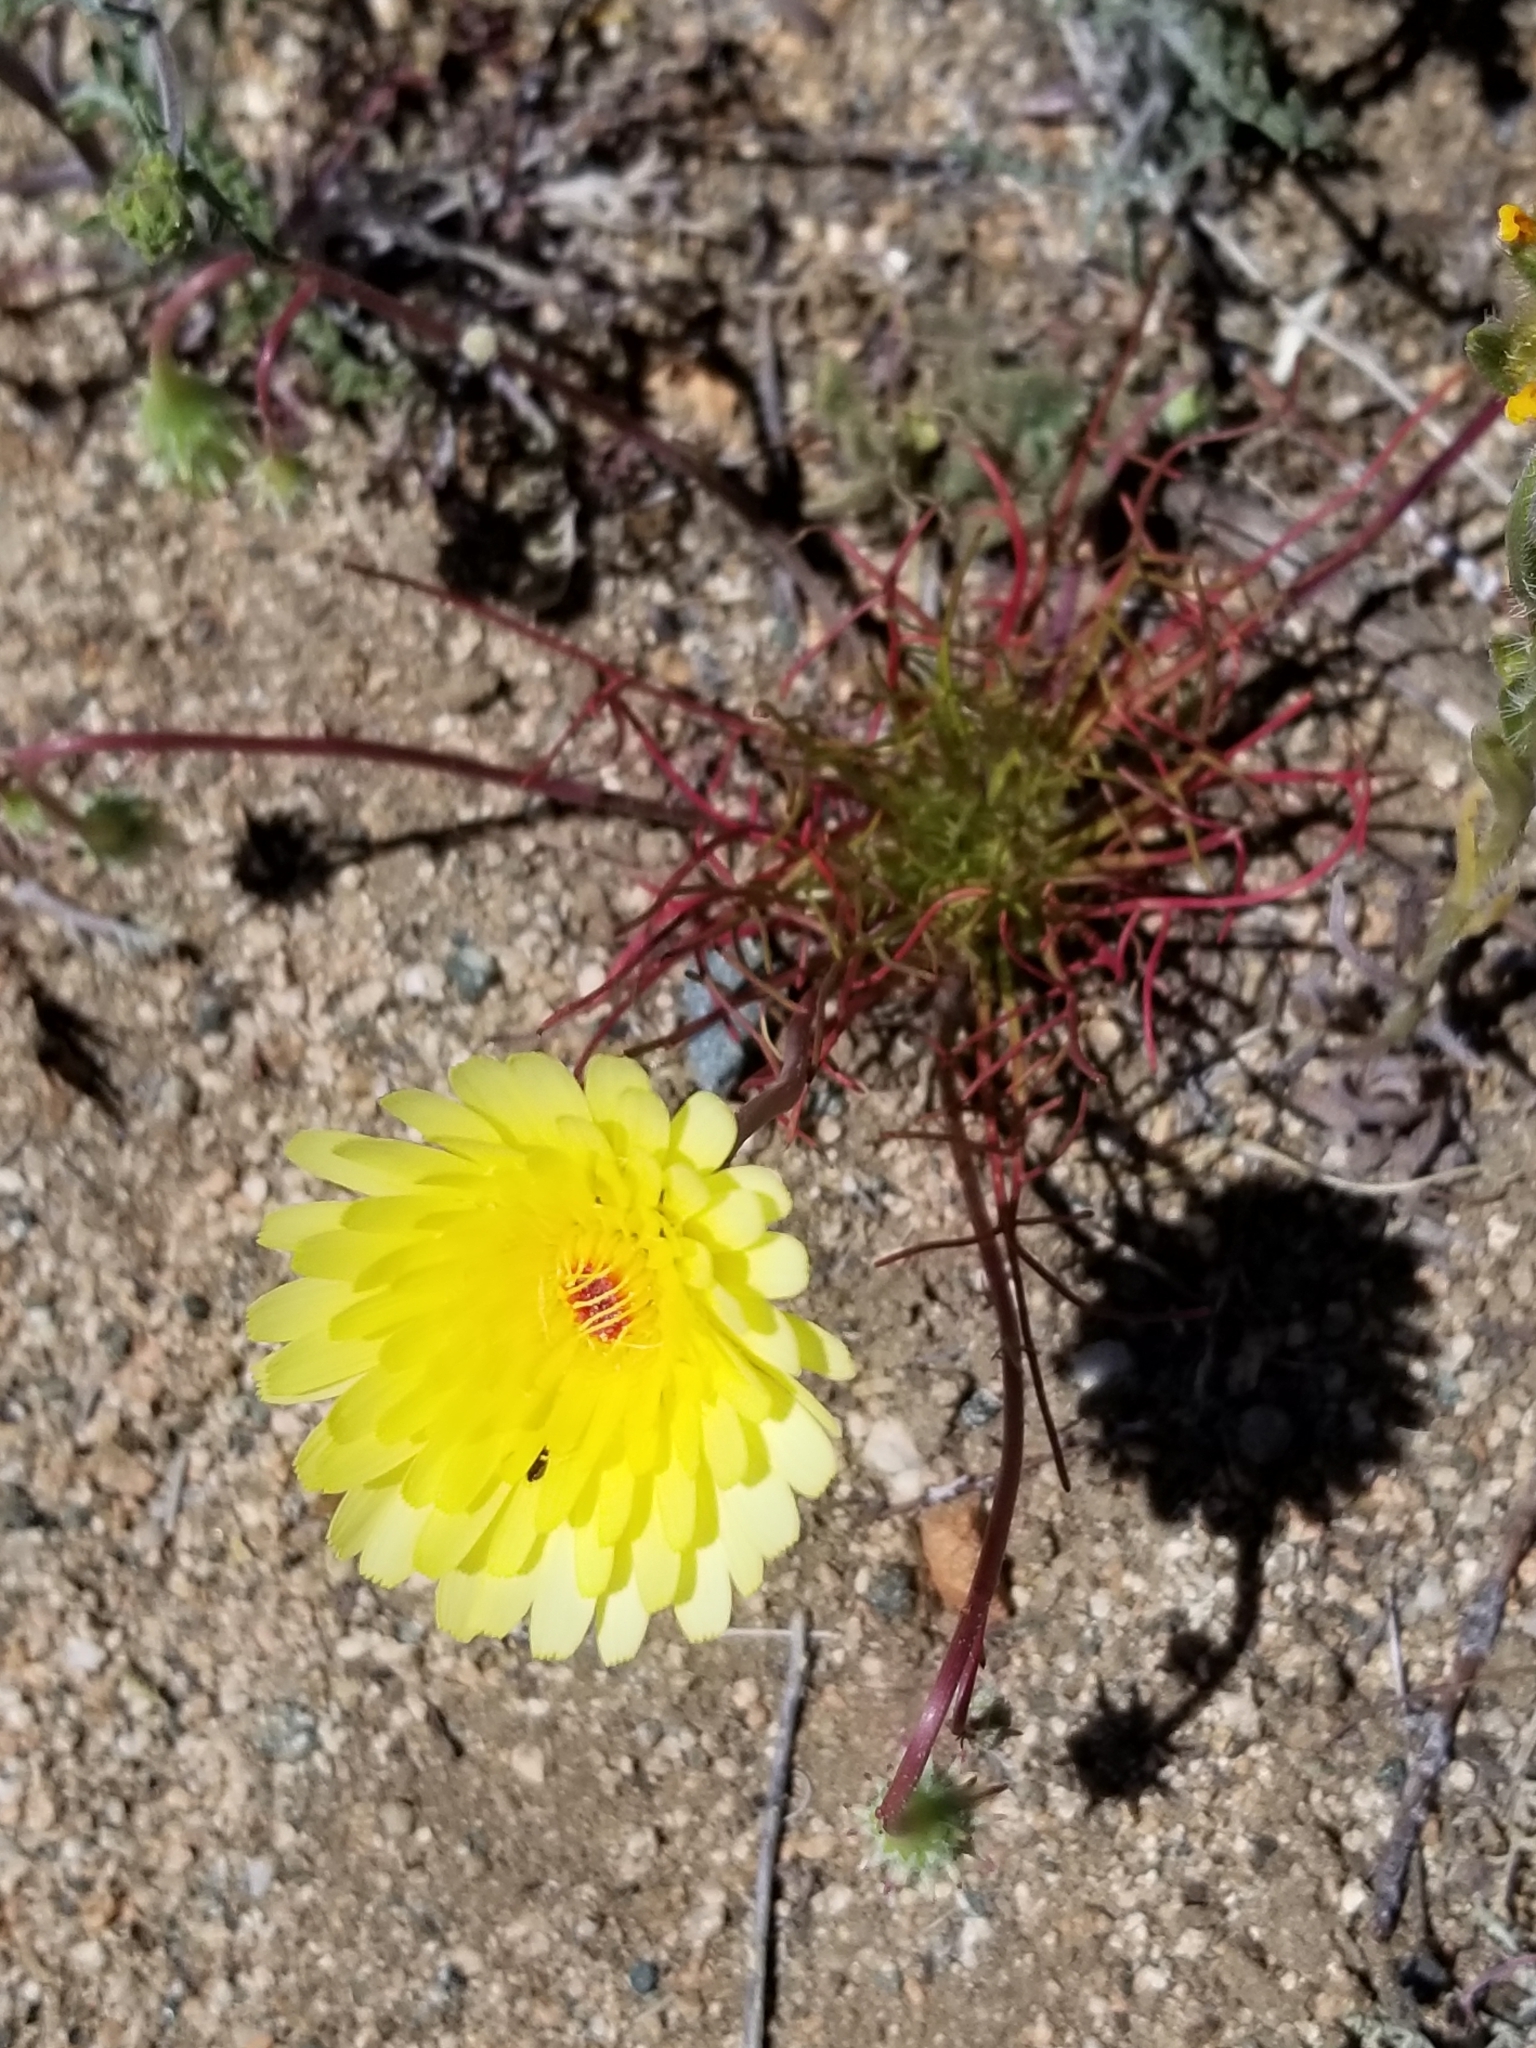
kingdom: Plantae
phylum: Tracheophyta
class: Magnoliopsida
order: Asterales
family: Asteraceae
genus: Malacothrix
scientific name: Malacothrix glabrata
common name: Smooth desert-dandelion
